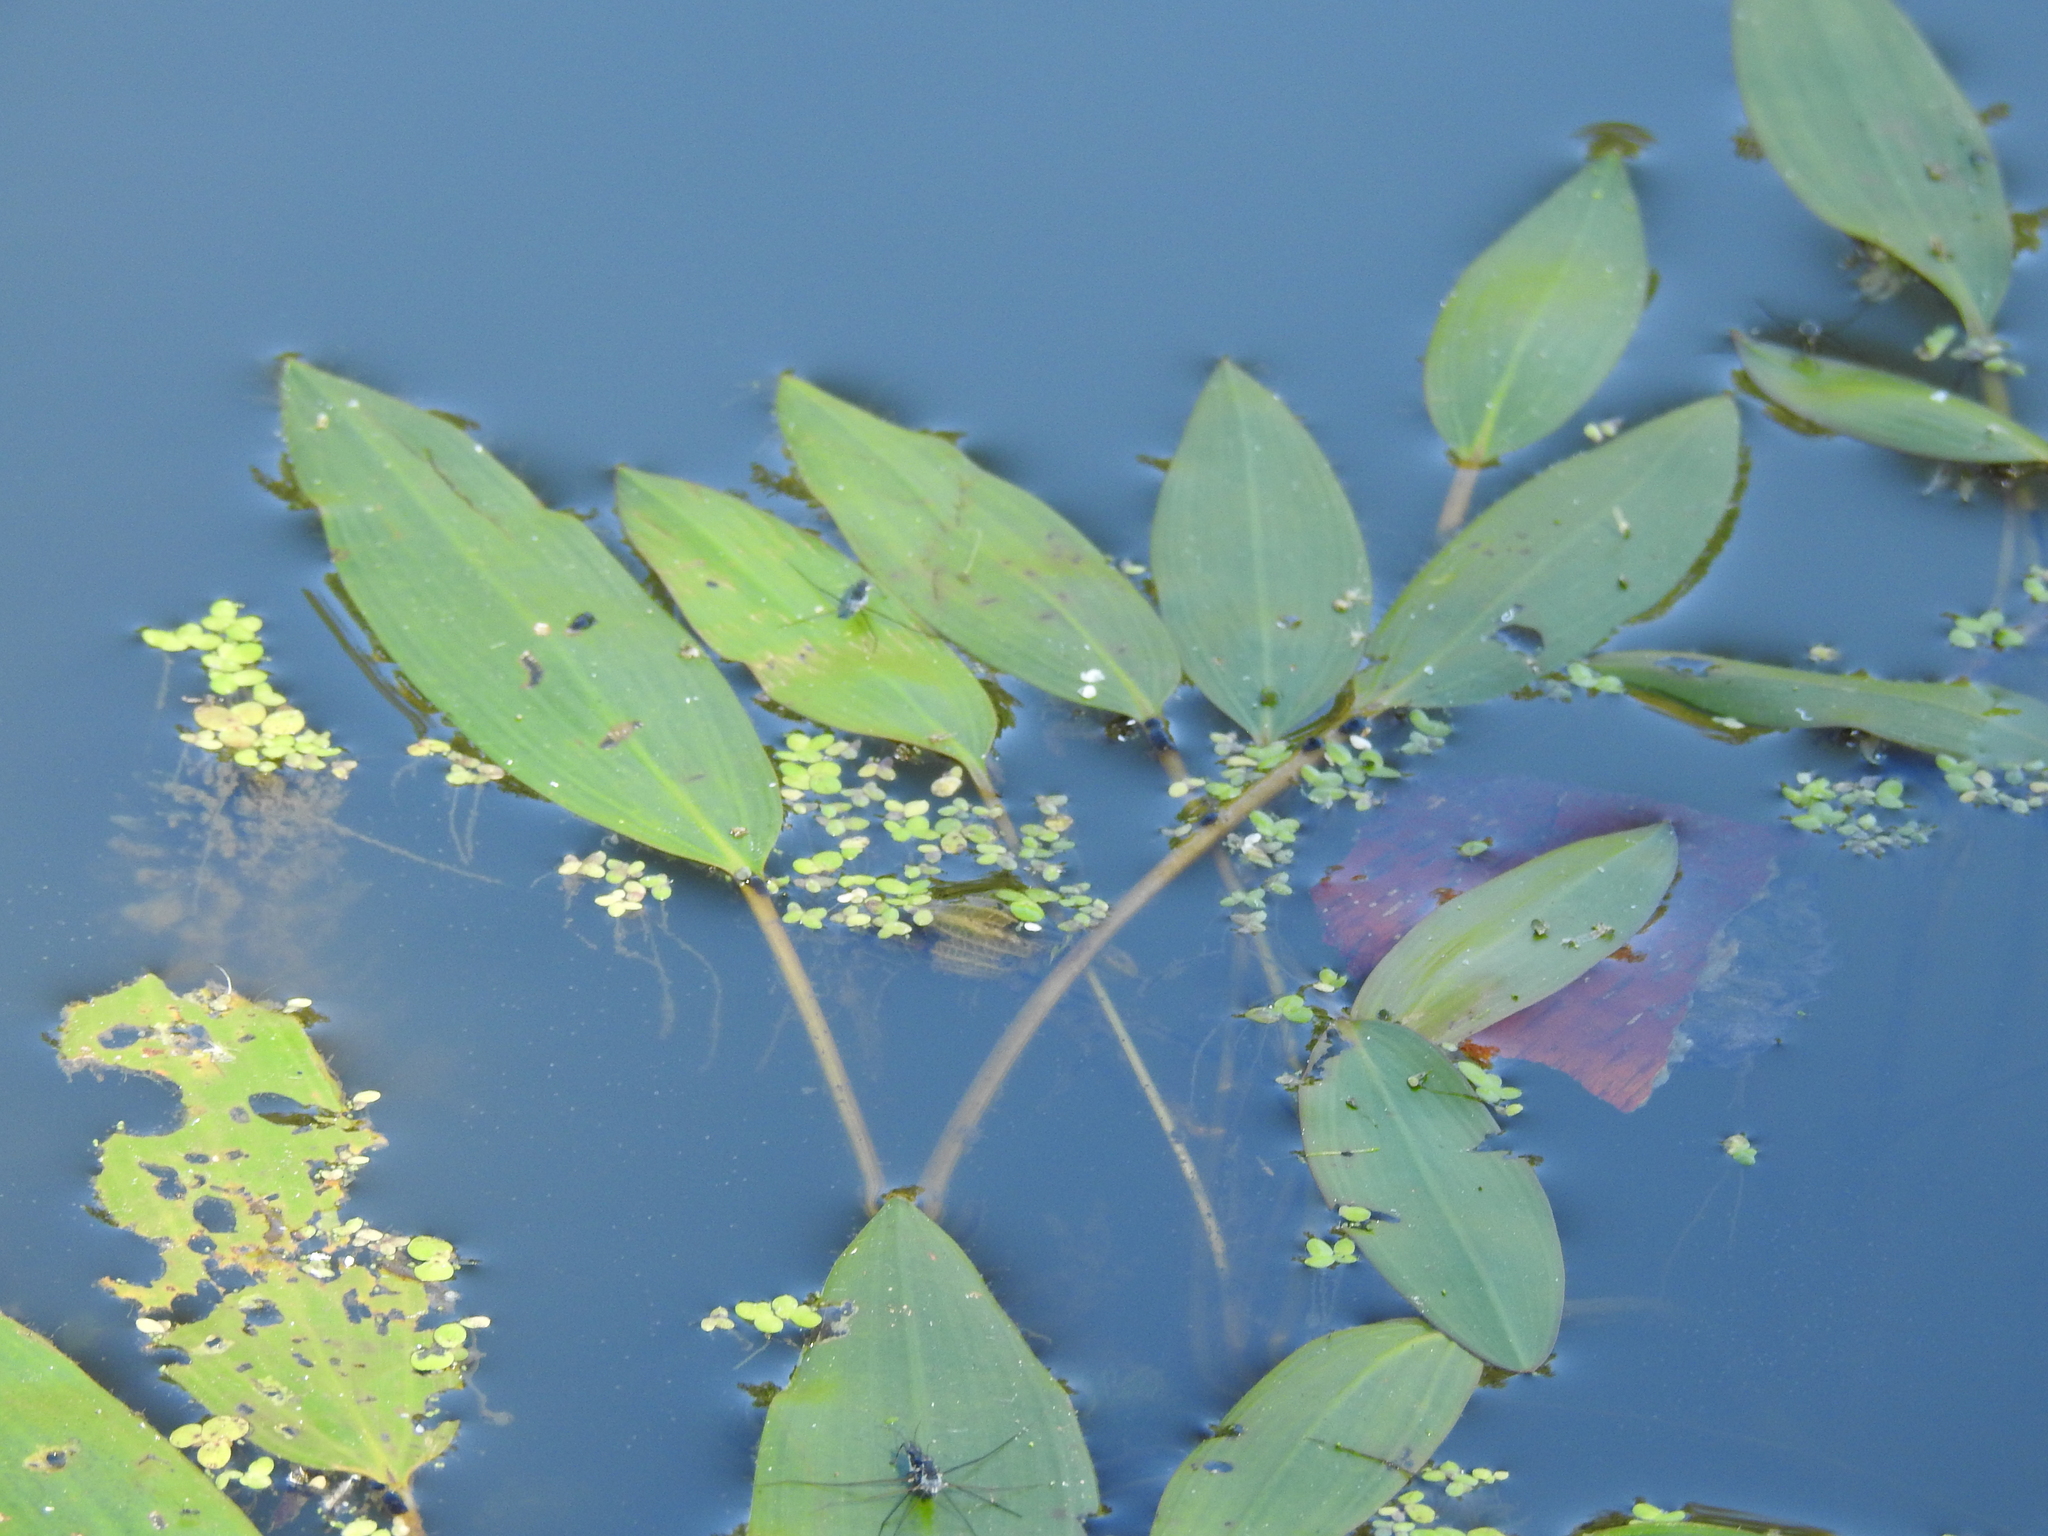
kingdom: Plantae
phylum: Tracheophyta
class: Liliopsida
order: Alismatales
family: Potamogetonaceae
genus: Potamogeton
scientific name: Potamogeton nodosus
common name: Loddon pondweed
